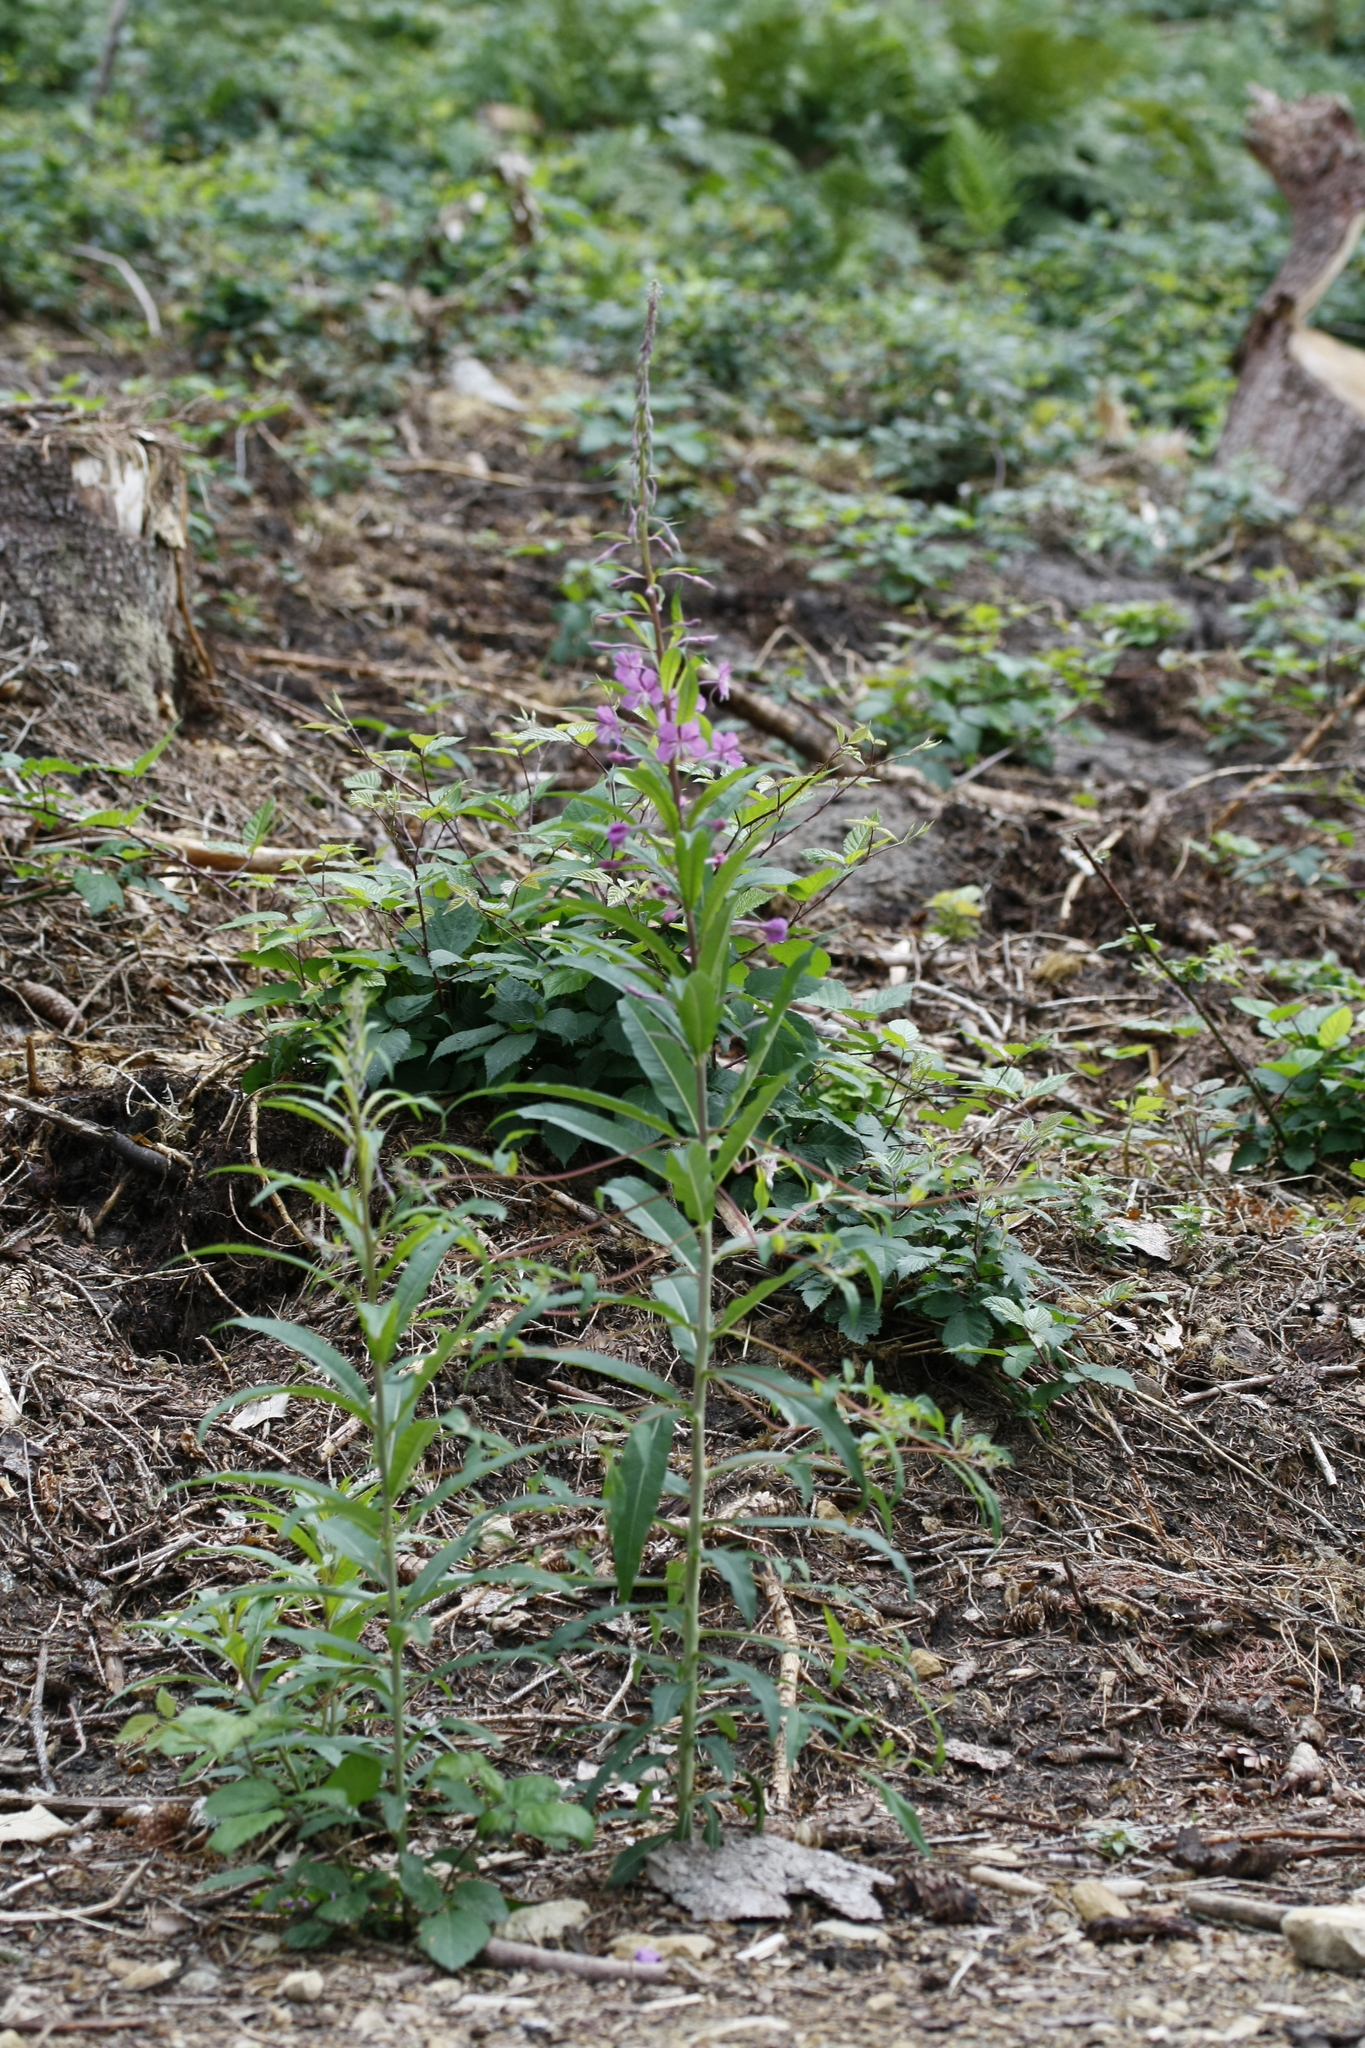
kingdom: Plantae
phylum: Tracheophyta
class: Magnoliopsida
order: Myrtales
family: Onagraceae
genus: Chamaenerion
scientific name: Chamaenerion angustifolium
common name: Fireweed
